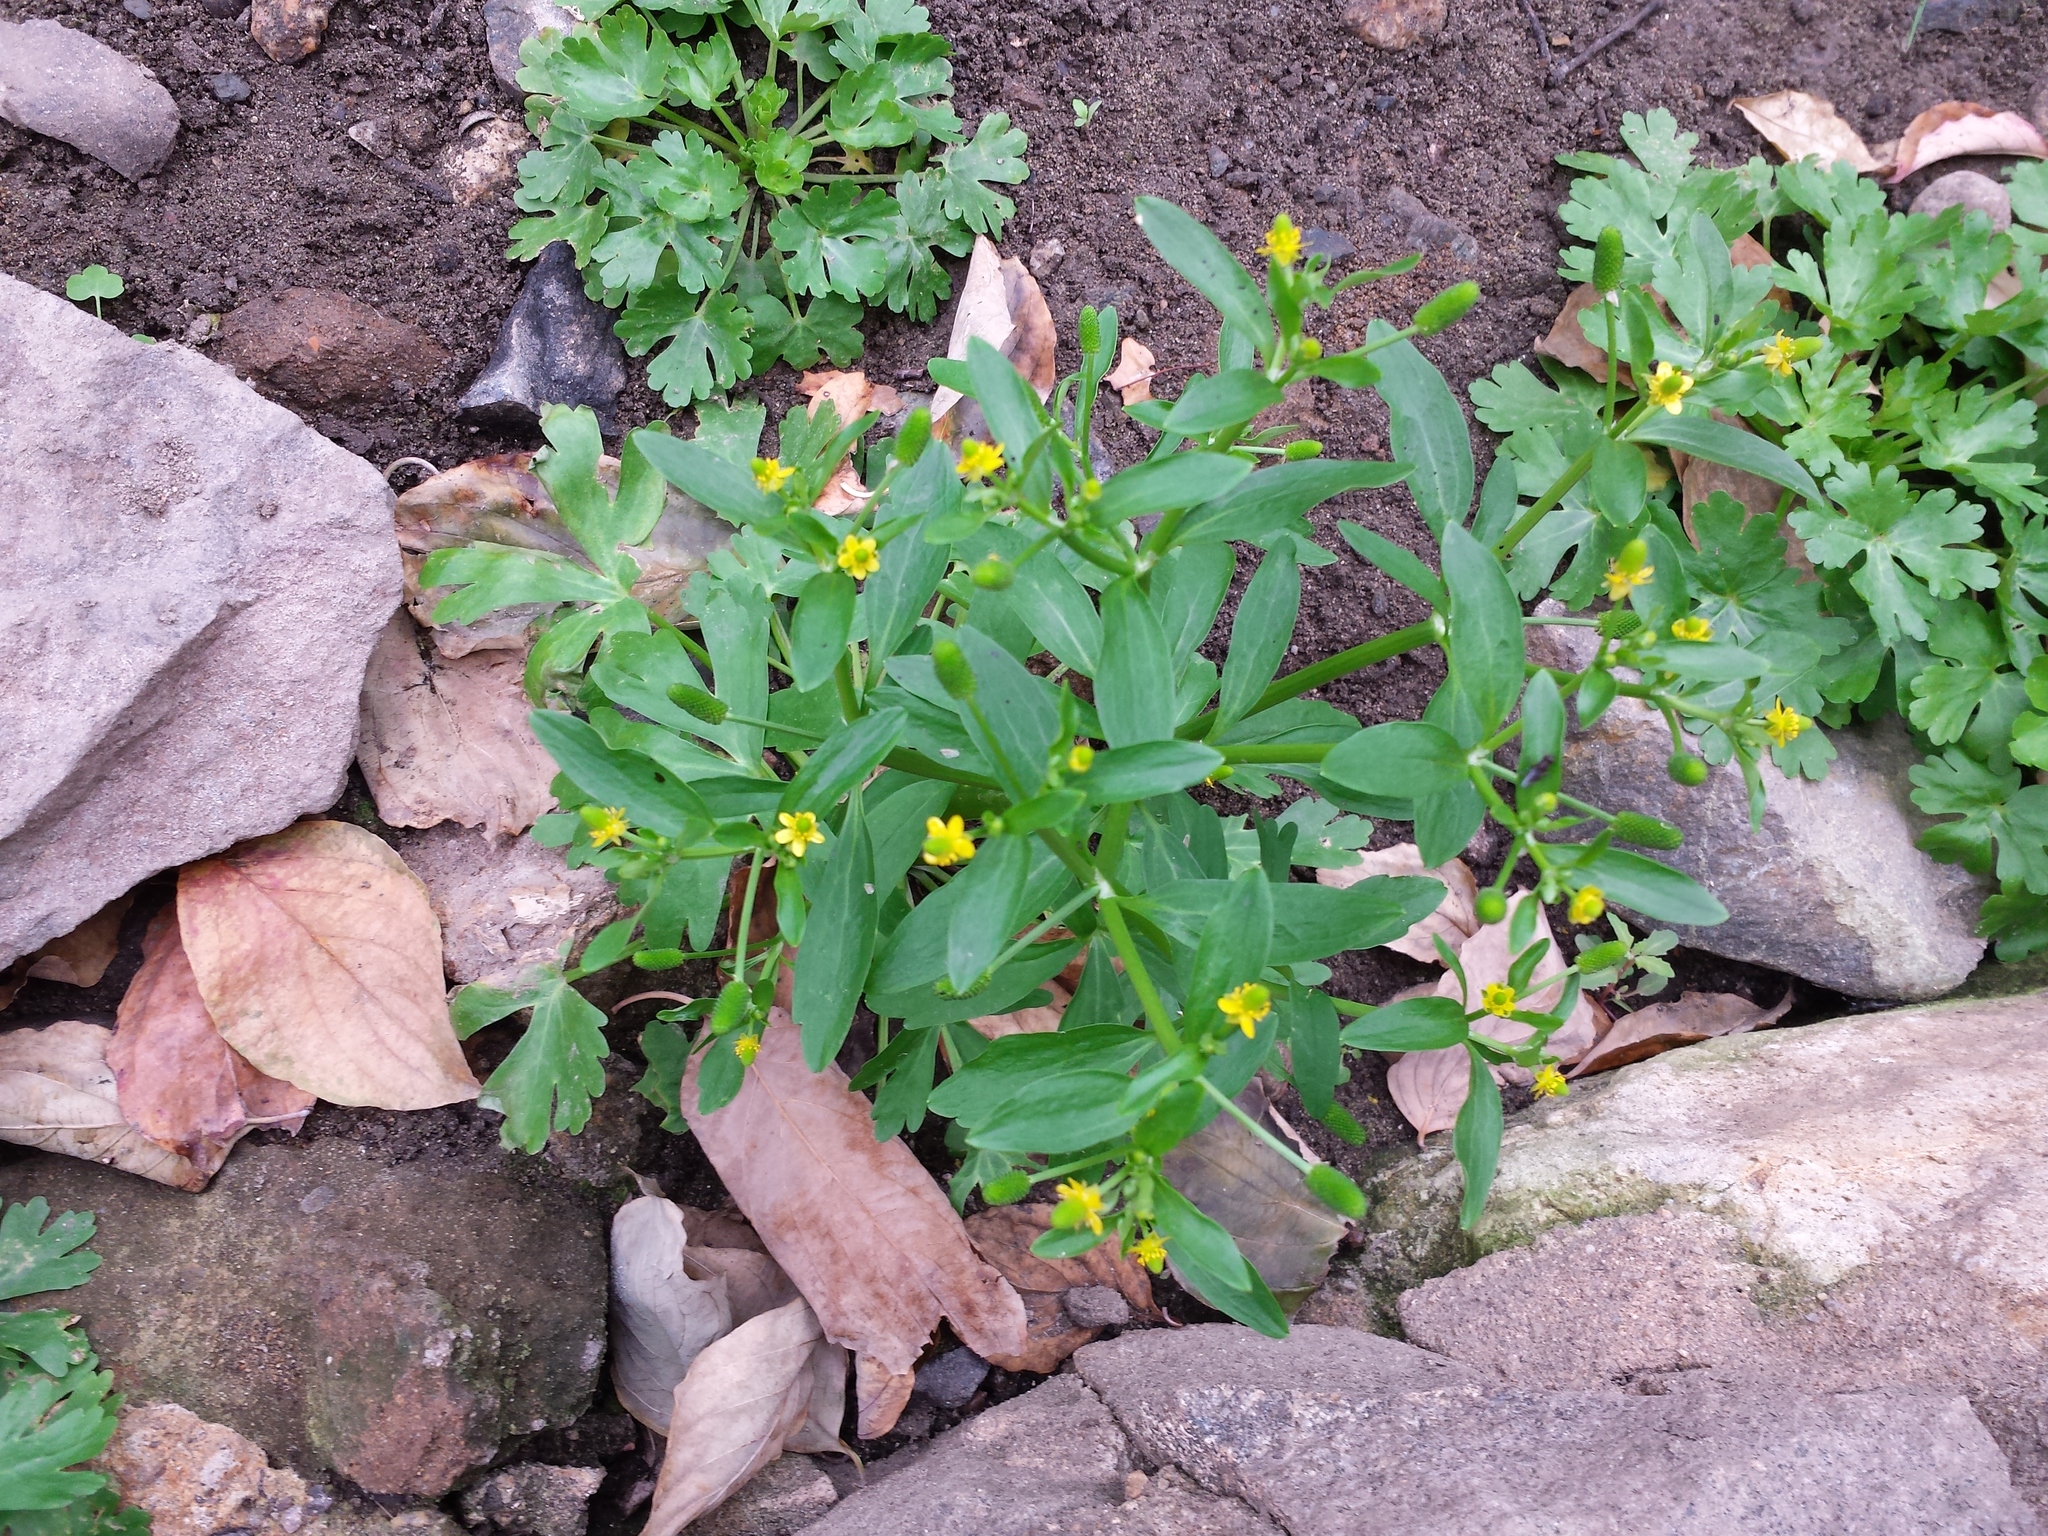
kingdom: Plantae
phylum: Tracheophyta
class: Magnoliopsida
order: Ranunculales
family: Ranunculaceae
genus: Ranunculus
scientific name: Ranunculus sceleratus
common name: Celery-leaved buttercup
